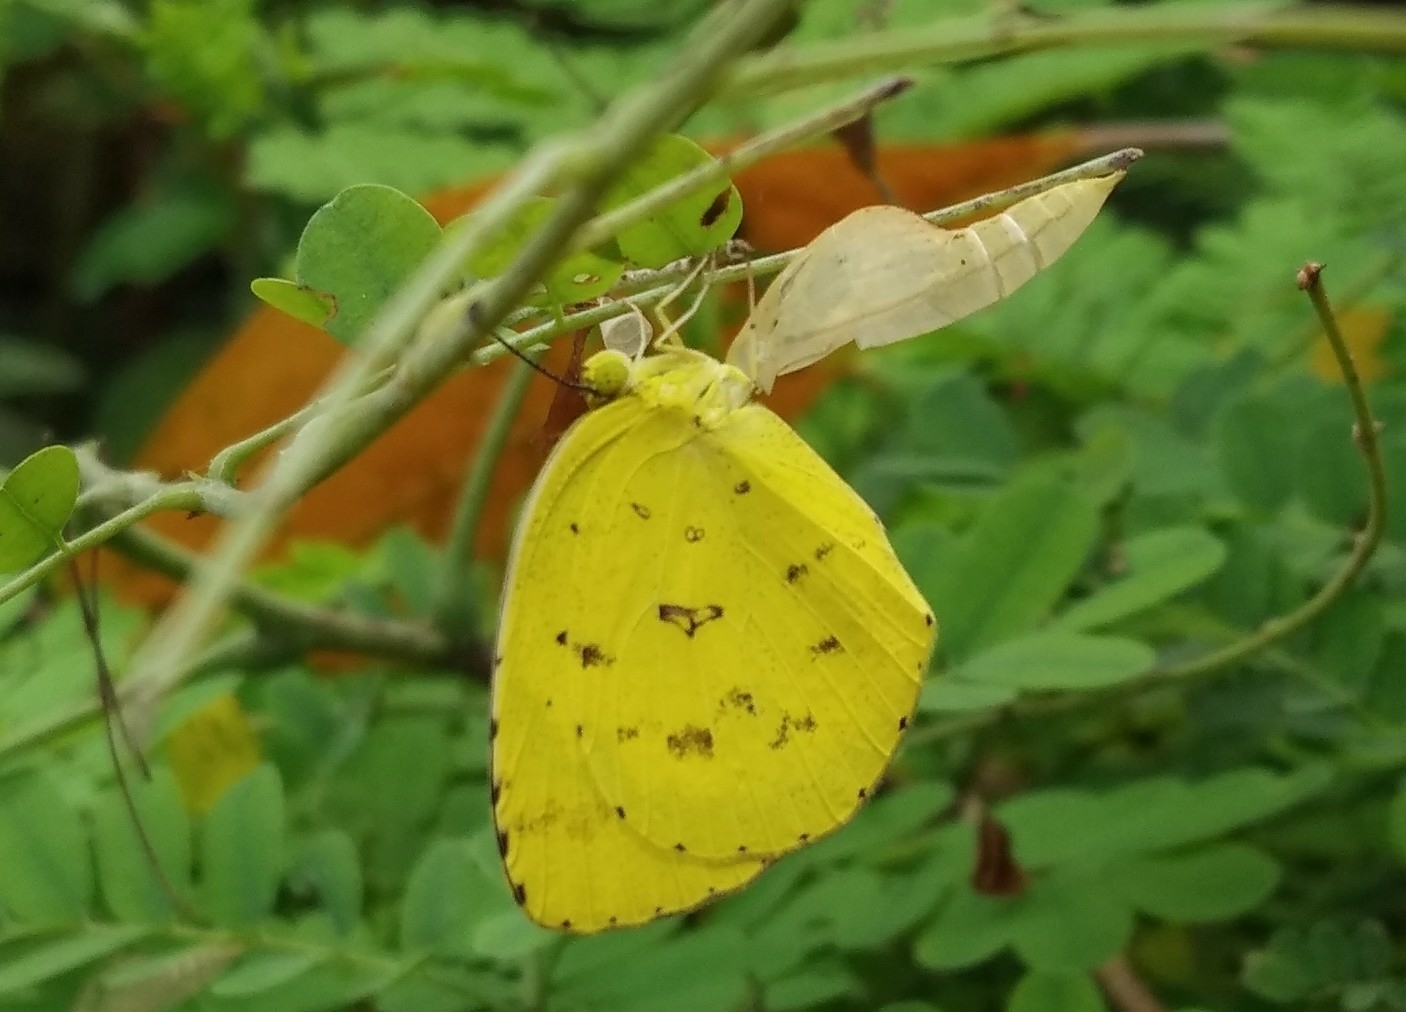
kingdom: Animalia
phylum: Arthropoda
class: Insecta
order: Lepidoptera
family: Pieridae
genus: Eurema
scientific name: Eurema hecabe
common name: Pale grass yellow
